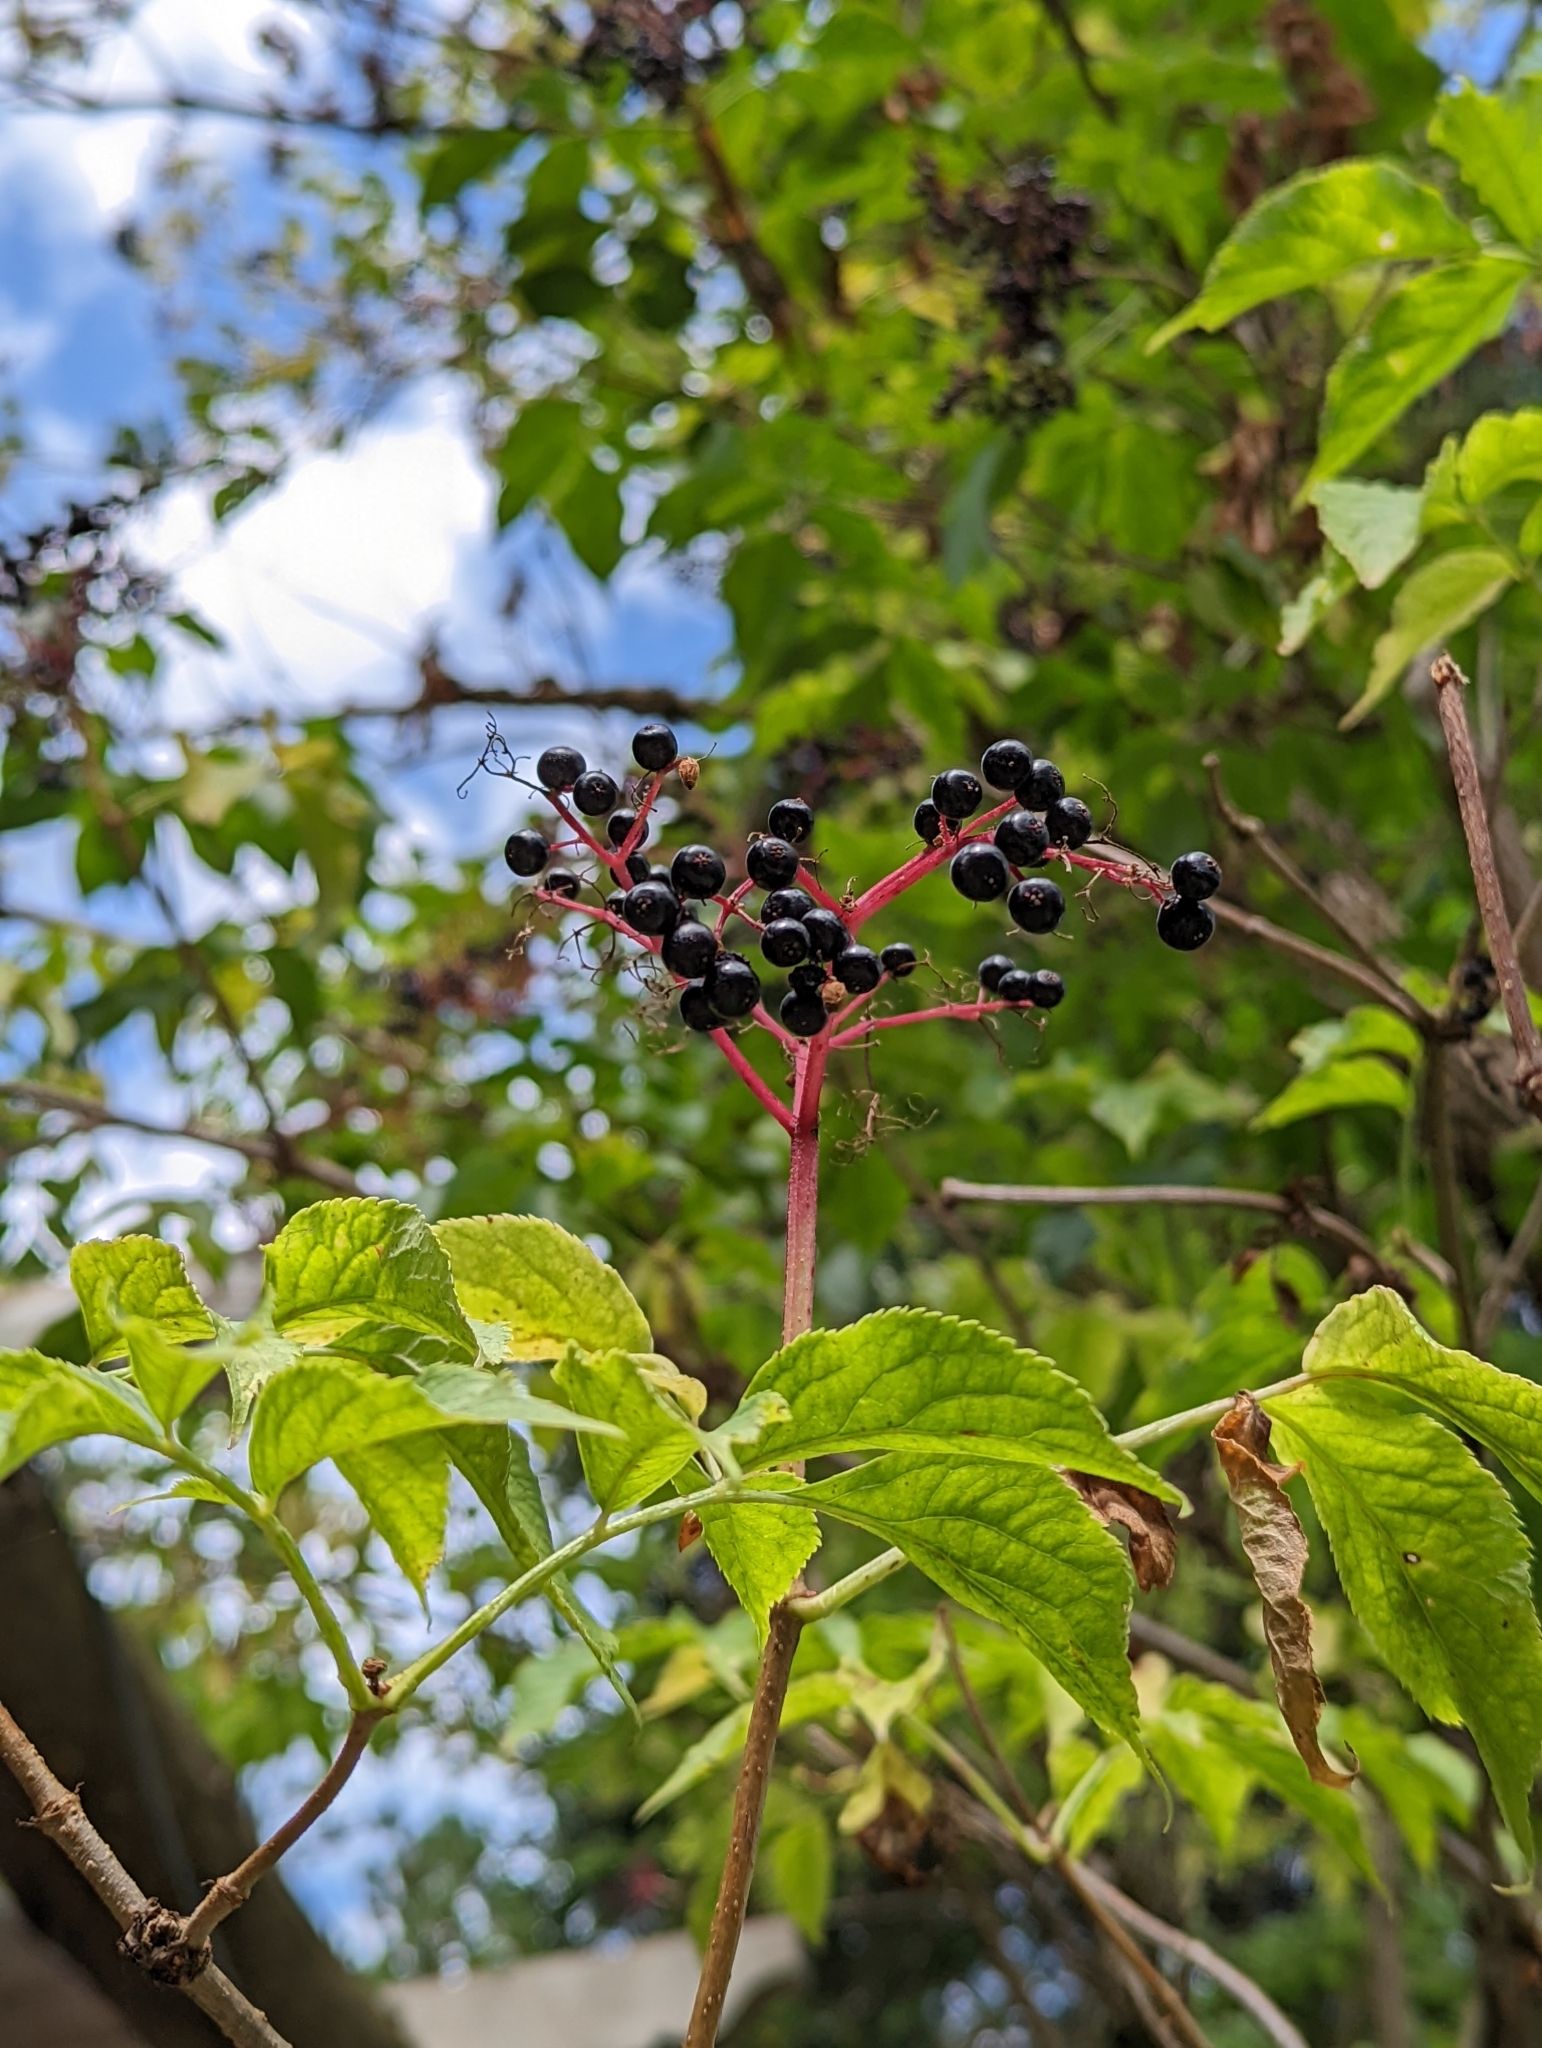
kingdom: Plantae
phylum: Tracheophyta
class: Magnoliopsida
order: Dipsacales
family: Viburnaceae
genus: Sambucus
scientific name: Sambucus nigra
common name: Elder
